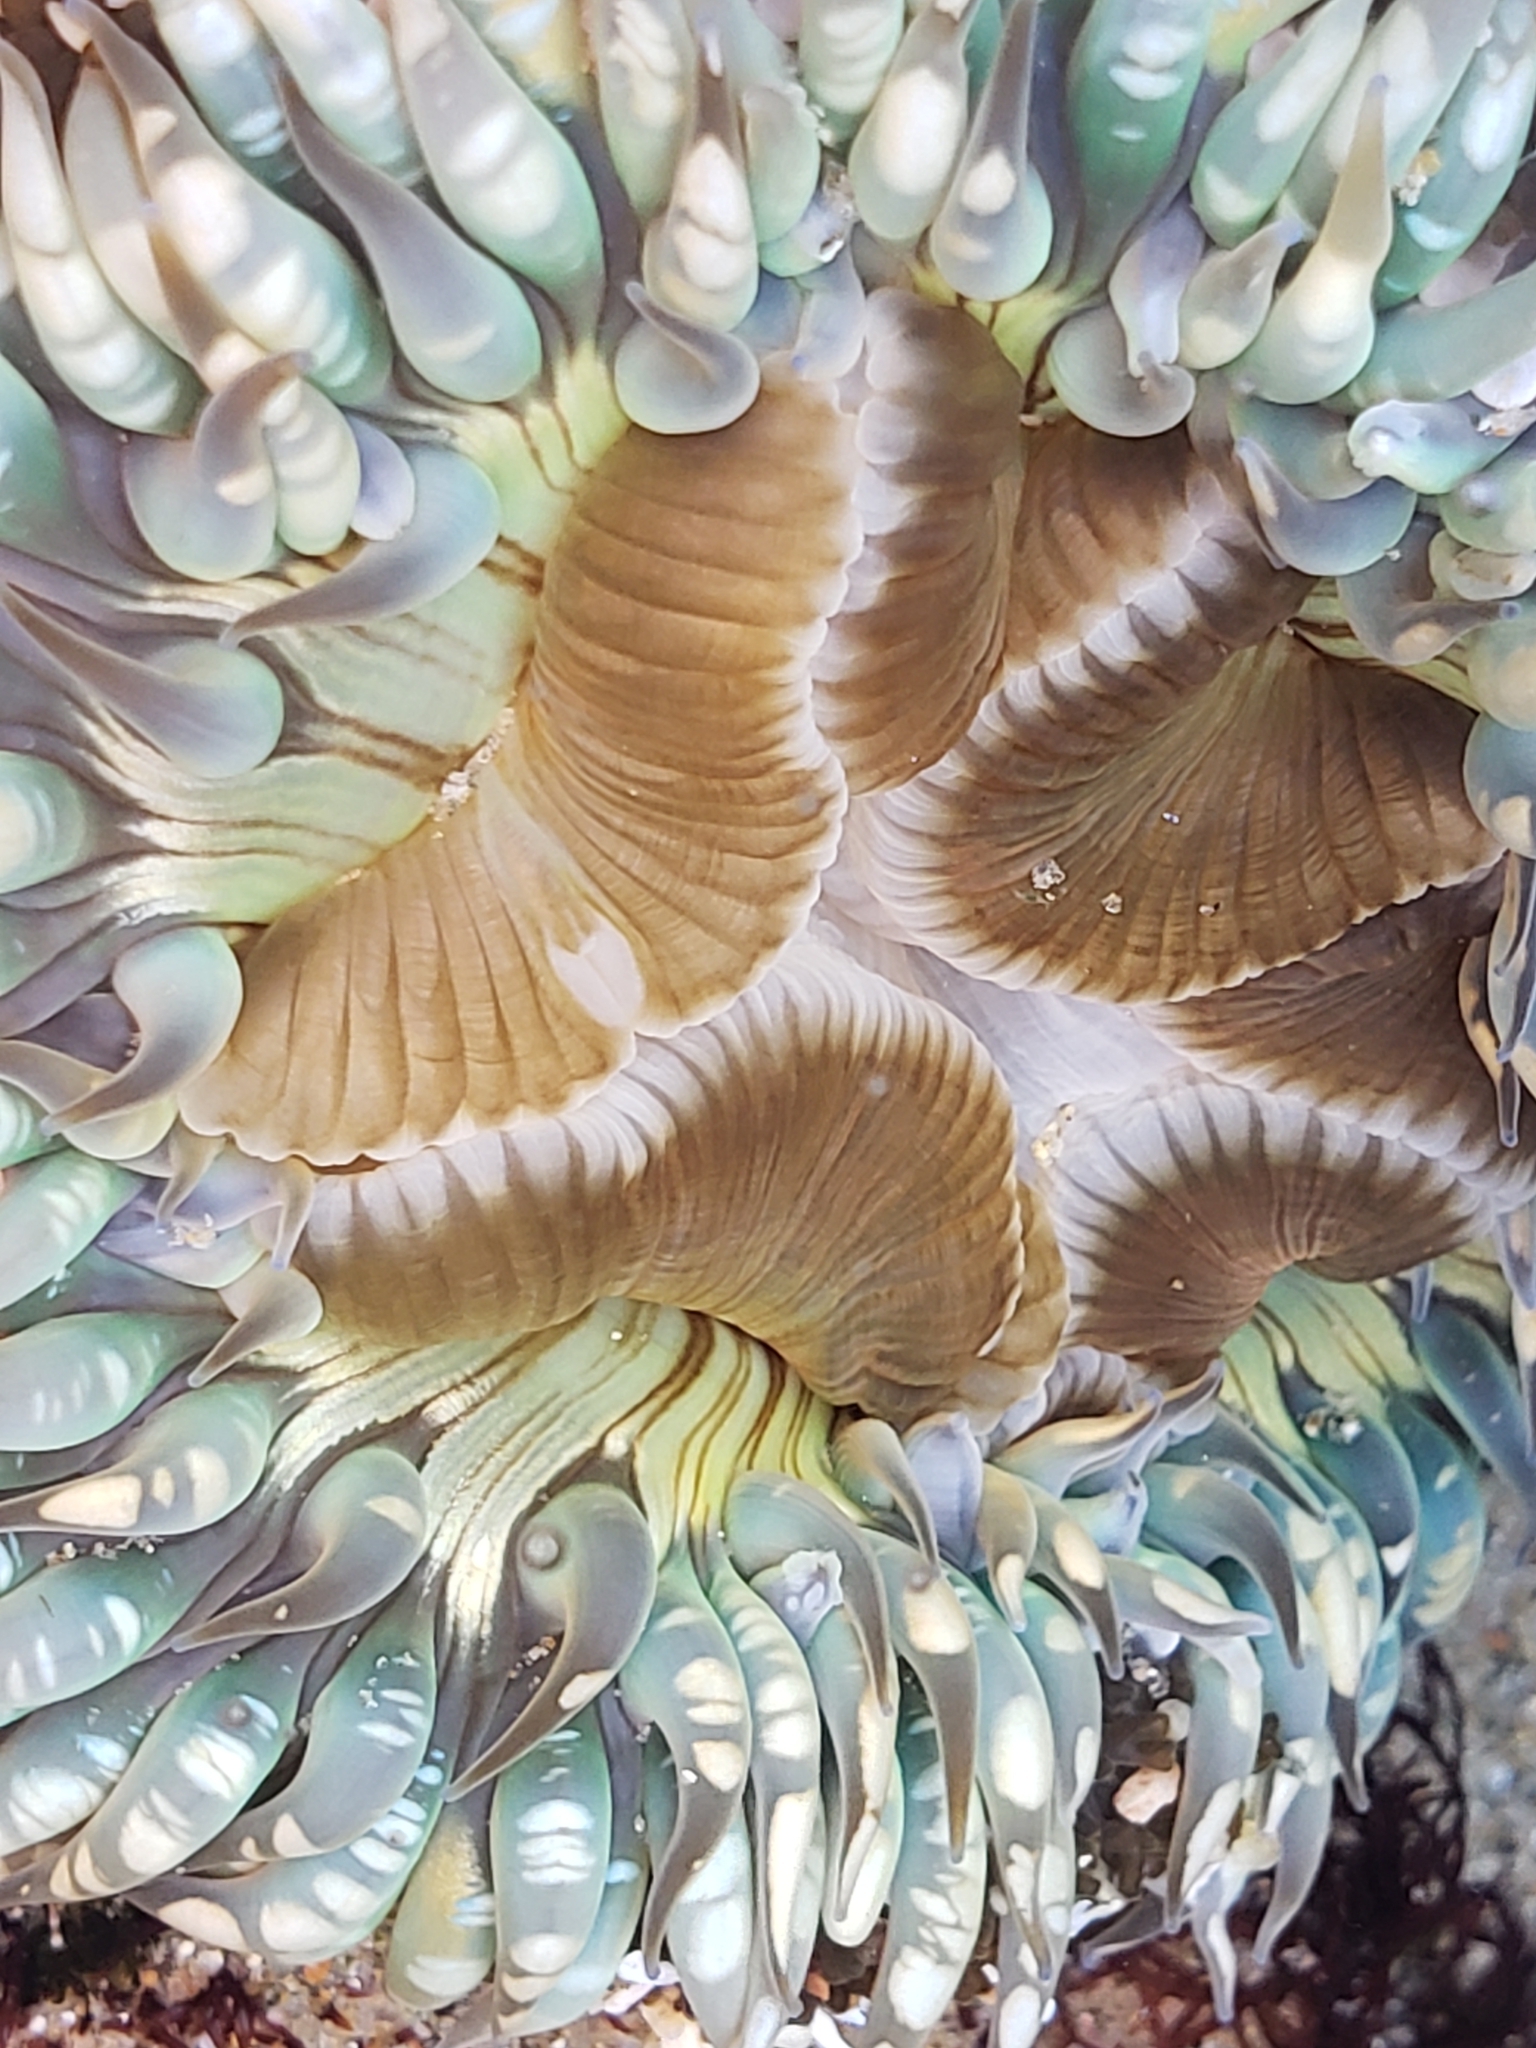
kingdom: Animalia
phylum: Cnidaria
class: Anthozoa
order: Actiniaria
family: Actiniidae
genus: Anthopleura
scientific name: Anthopleura sola
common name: Sun anemone
